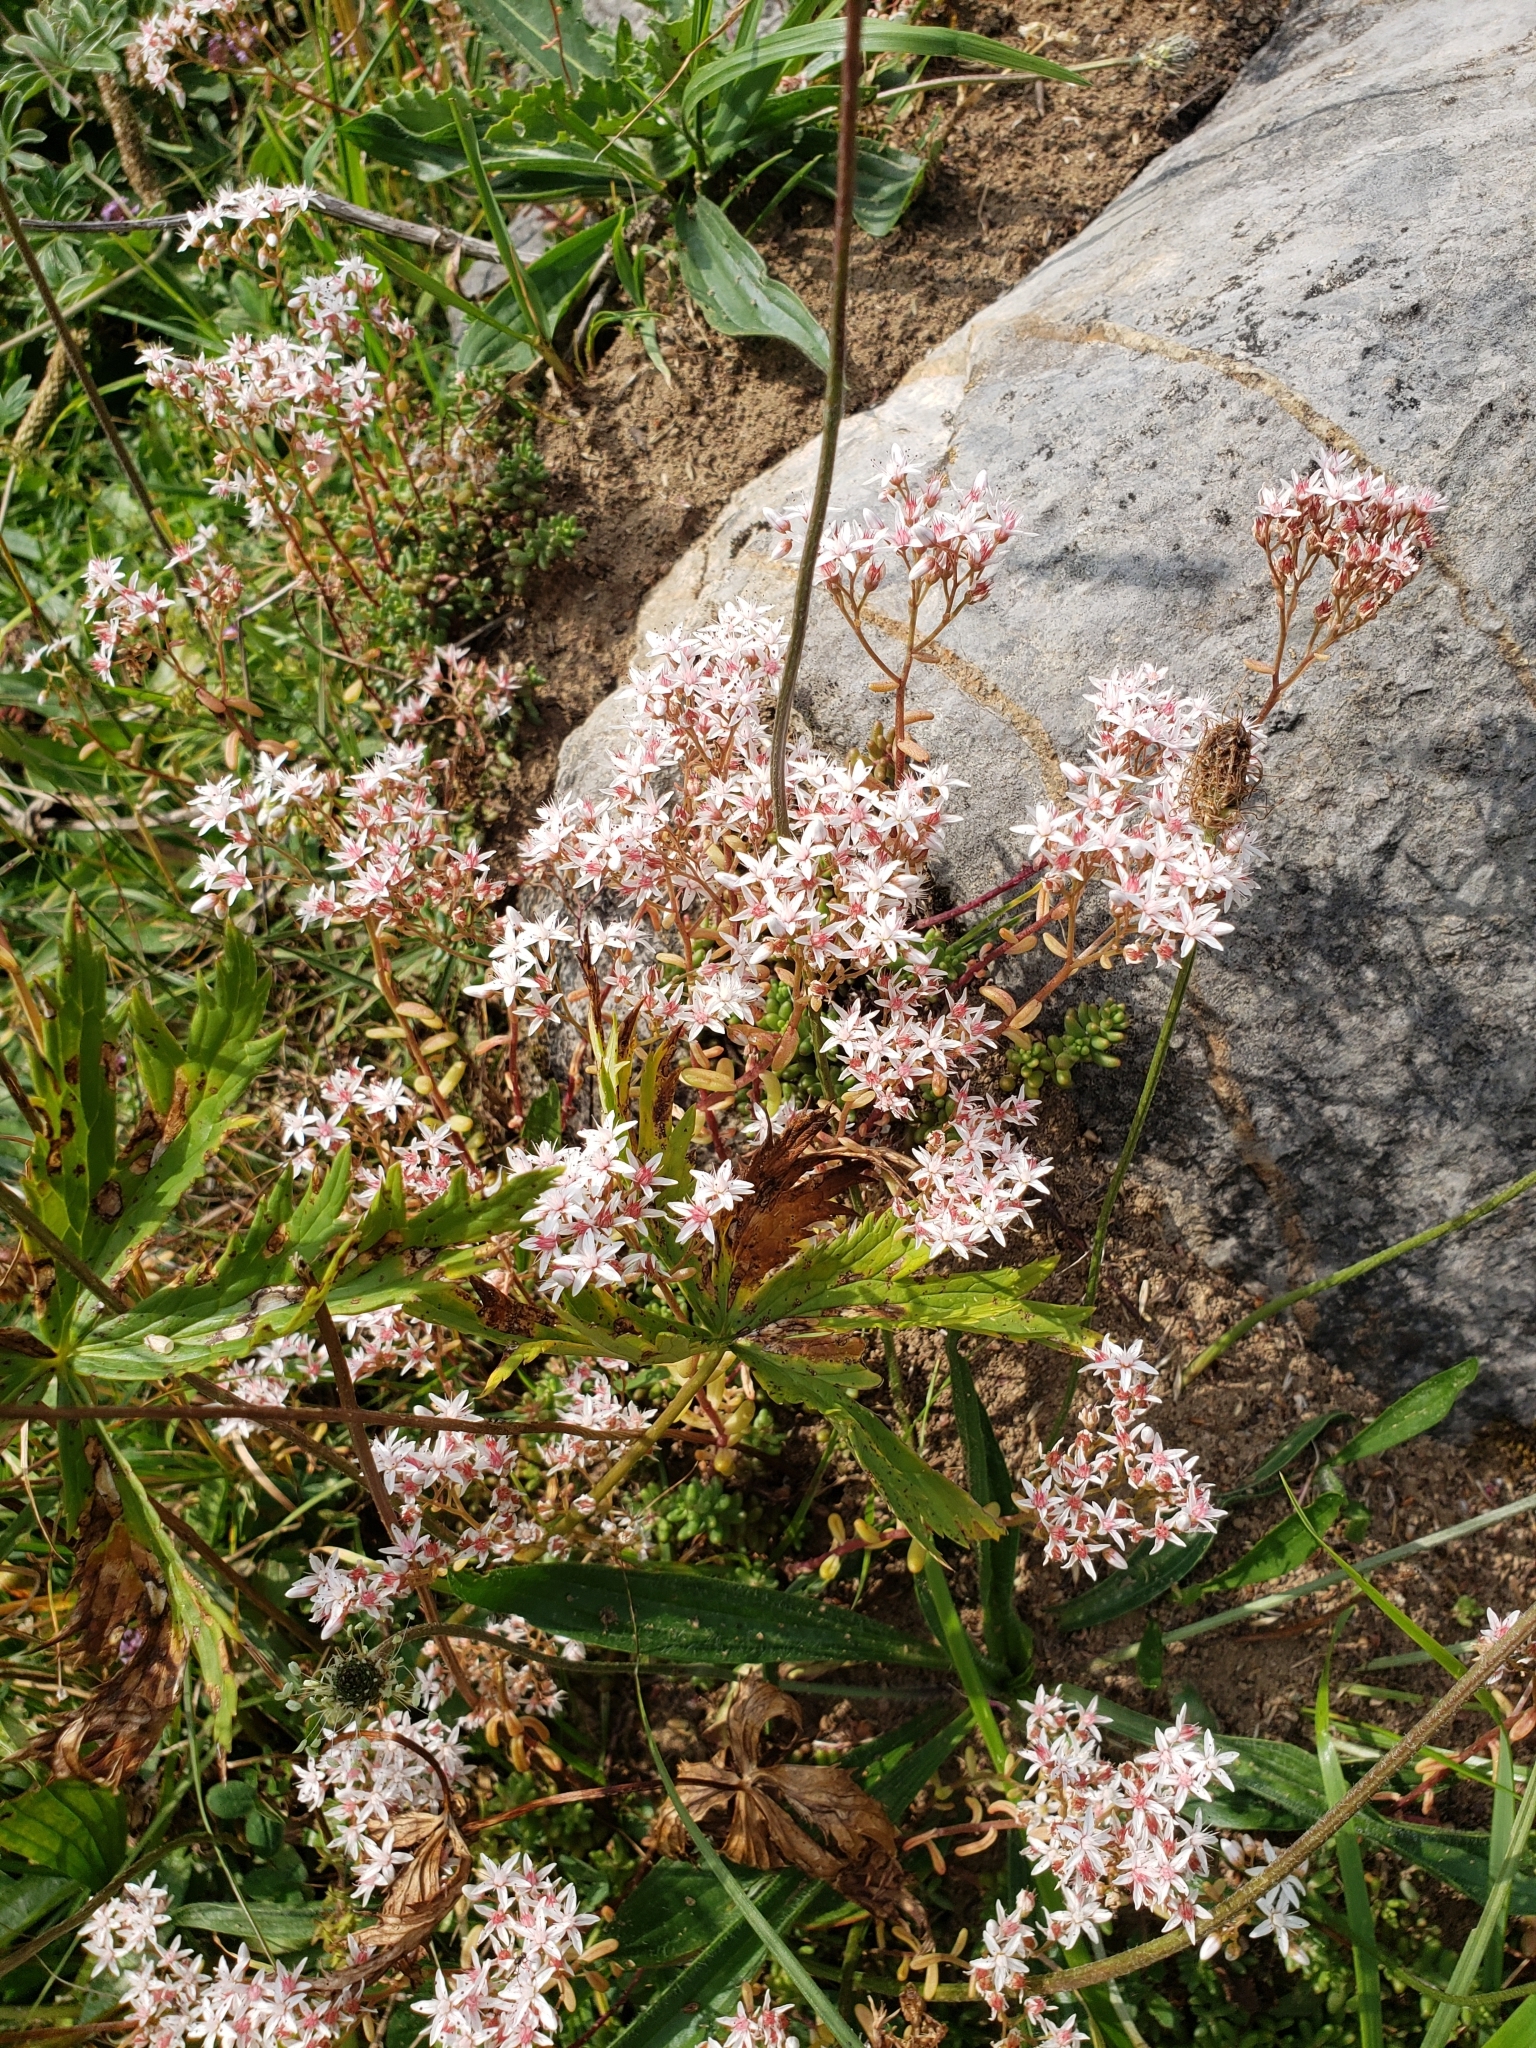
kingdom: Plantae
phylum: Tracheophyta
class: Magnoliopsida
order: Saxifragales
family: Crassulaceae
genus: Sedum
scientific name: Sedum album
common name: White stonecrop
